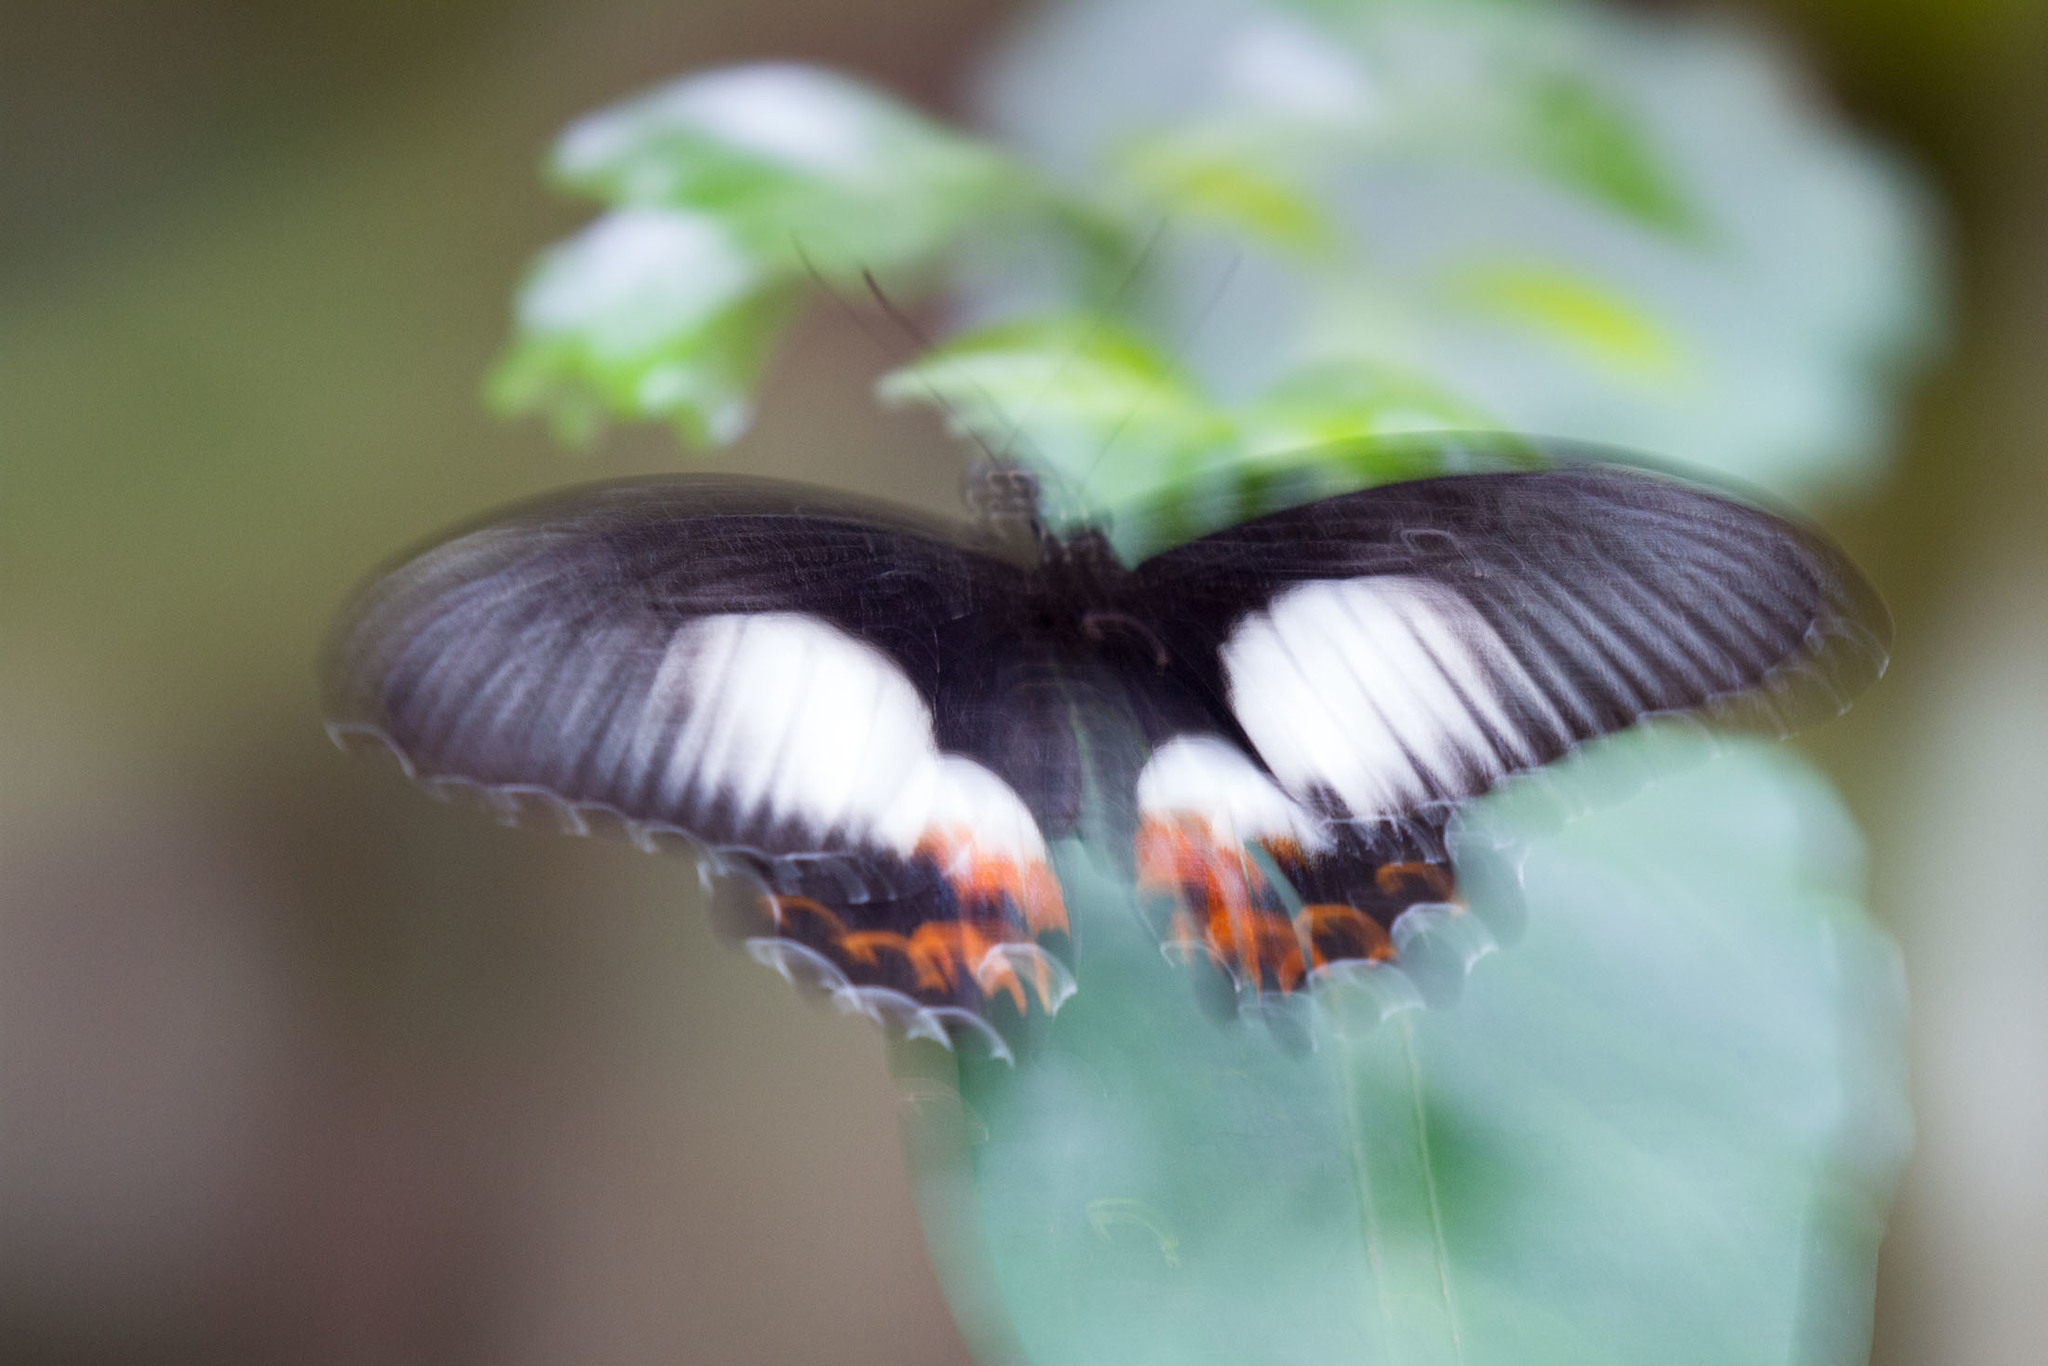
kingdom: Animalia
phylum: Arthropoda
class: Insecta
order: Lepidoptera
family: Papilionidae
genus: Papilio
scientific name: Papilio ambrax
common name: Ambrax butterfly
